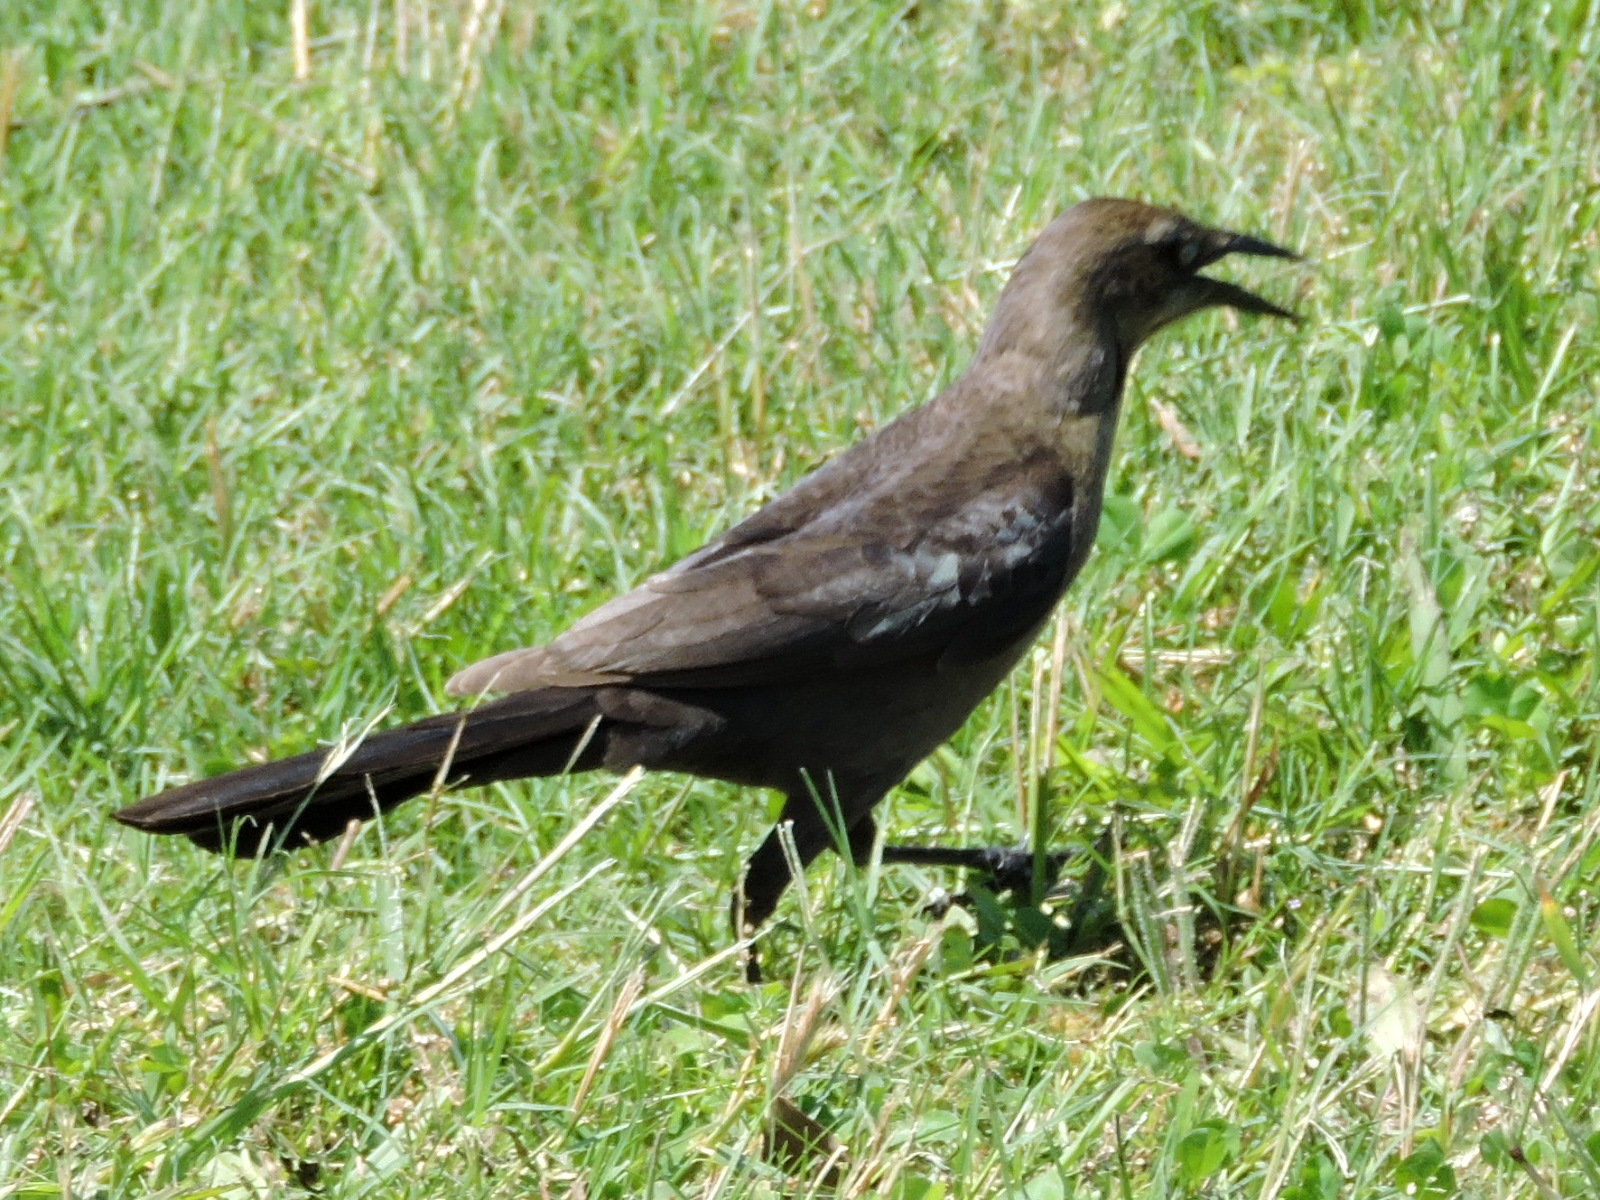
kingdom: Animalia
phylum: Chordata
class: Aves
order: Passeriformes
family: Icteridae
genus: Quiscalus
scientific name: Quiscalus mexicanus
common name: Great-tailed grackle
